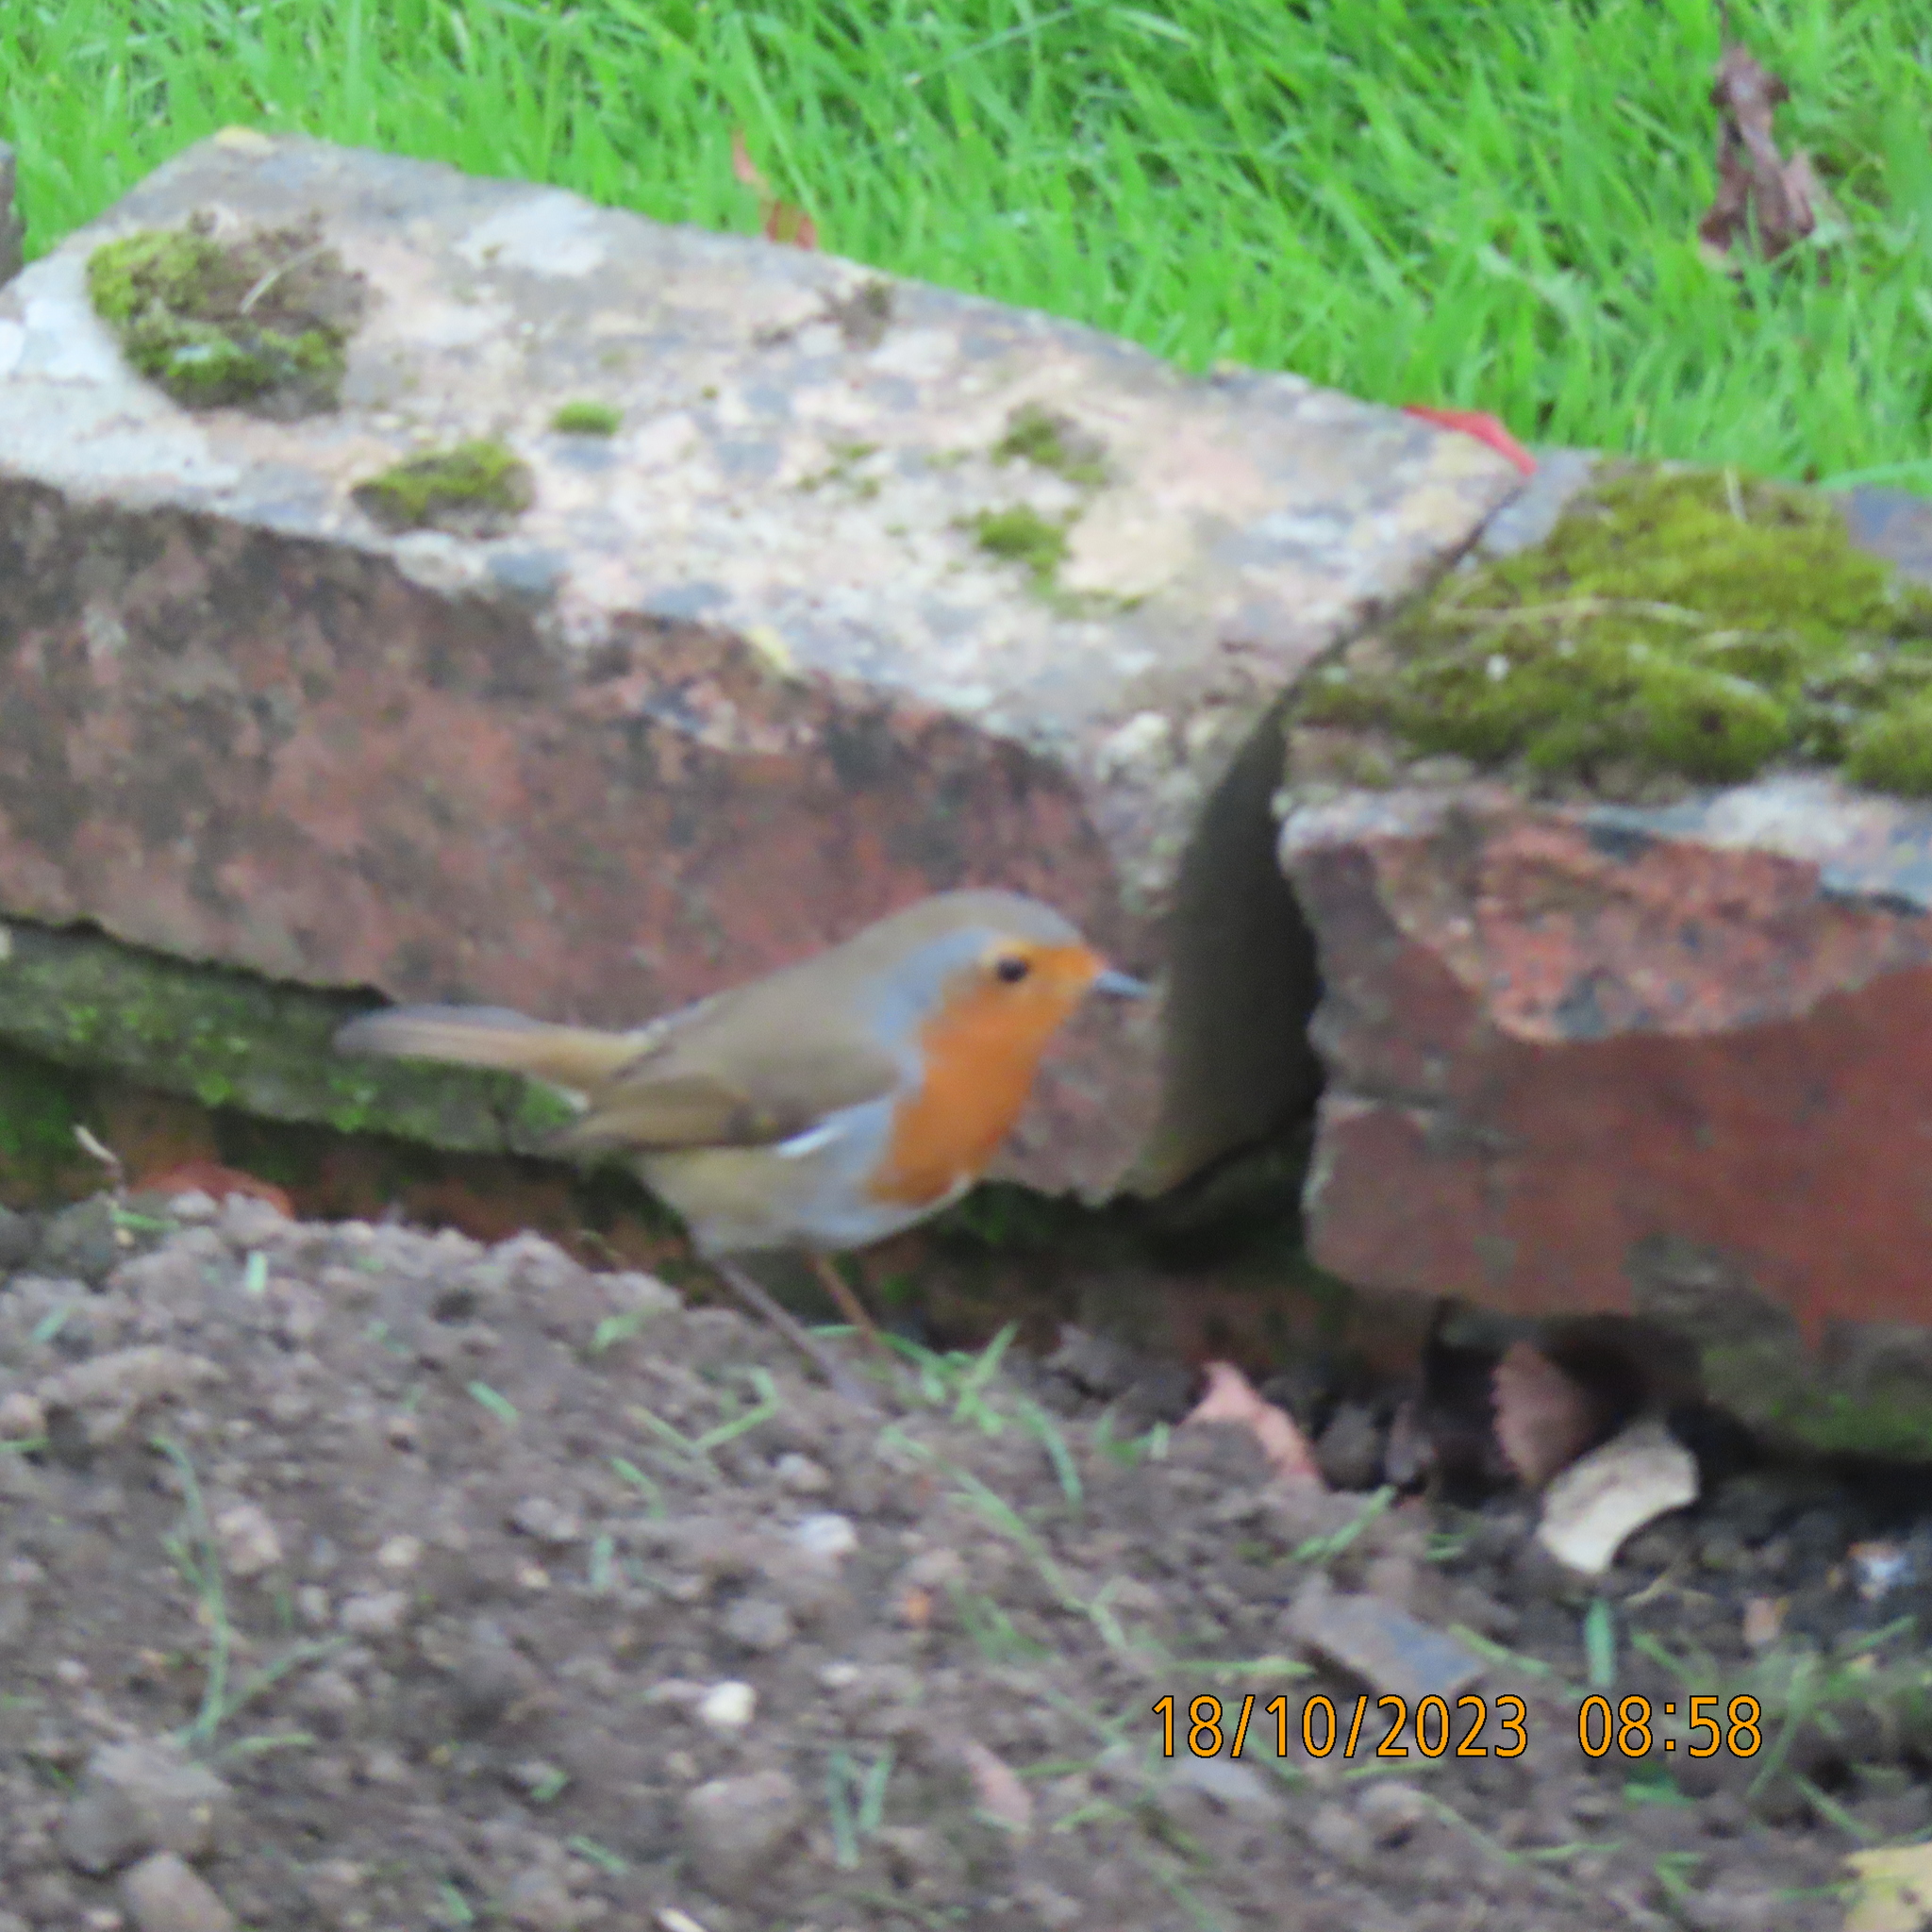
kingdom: Animalia
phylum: Chordata
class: Aves
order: Passeriformes
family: Muscicapidae
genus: Erithacus
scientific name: Erithacus rubecula
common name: European robin
